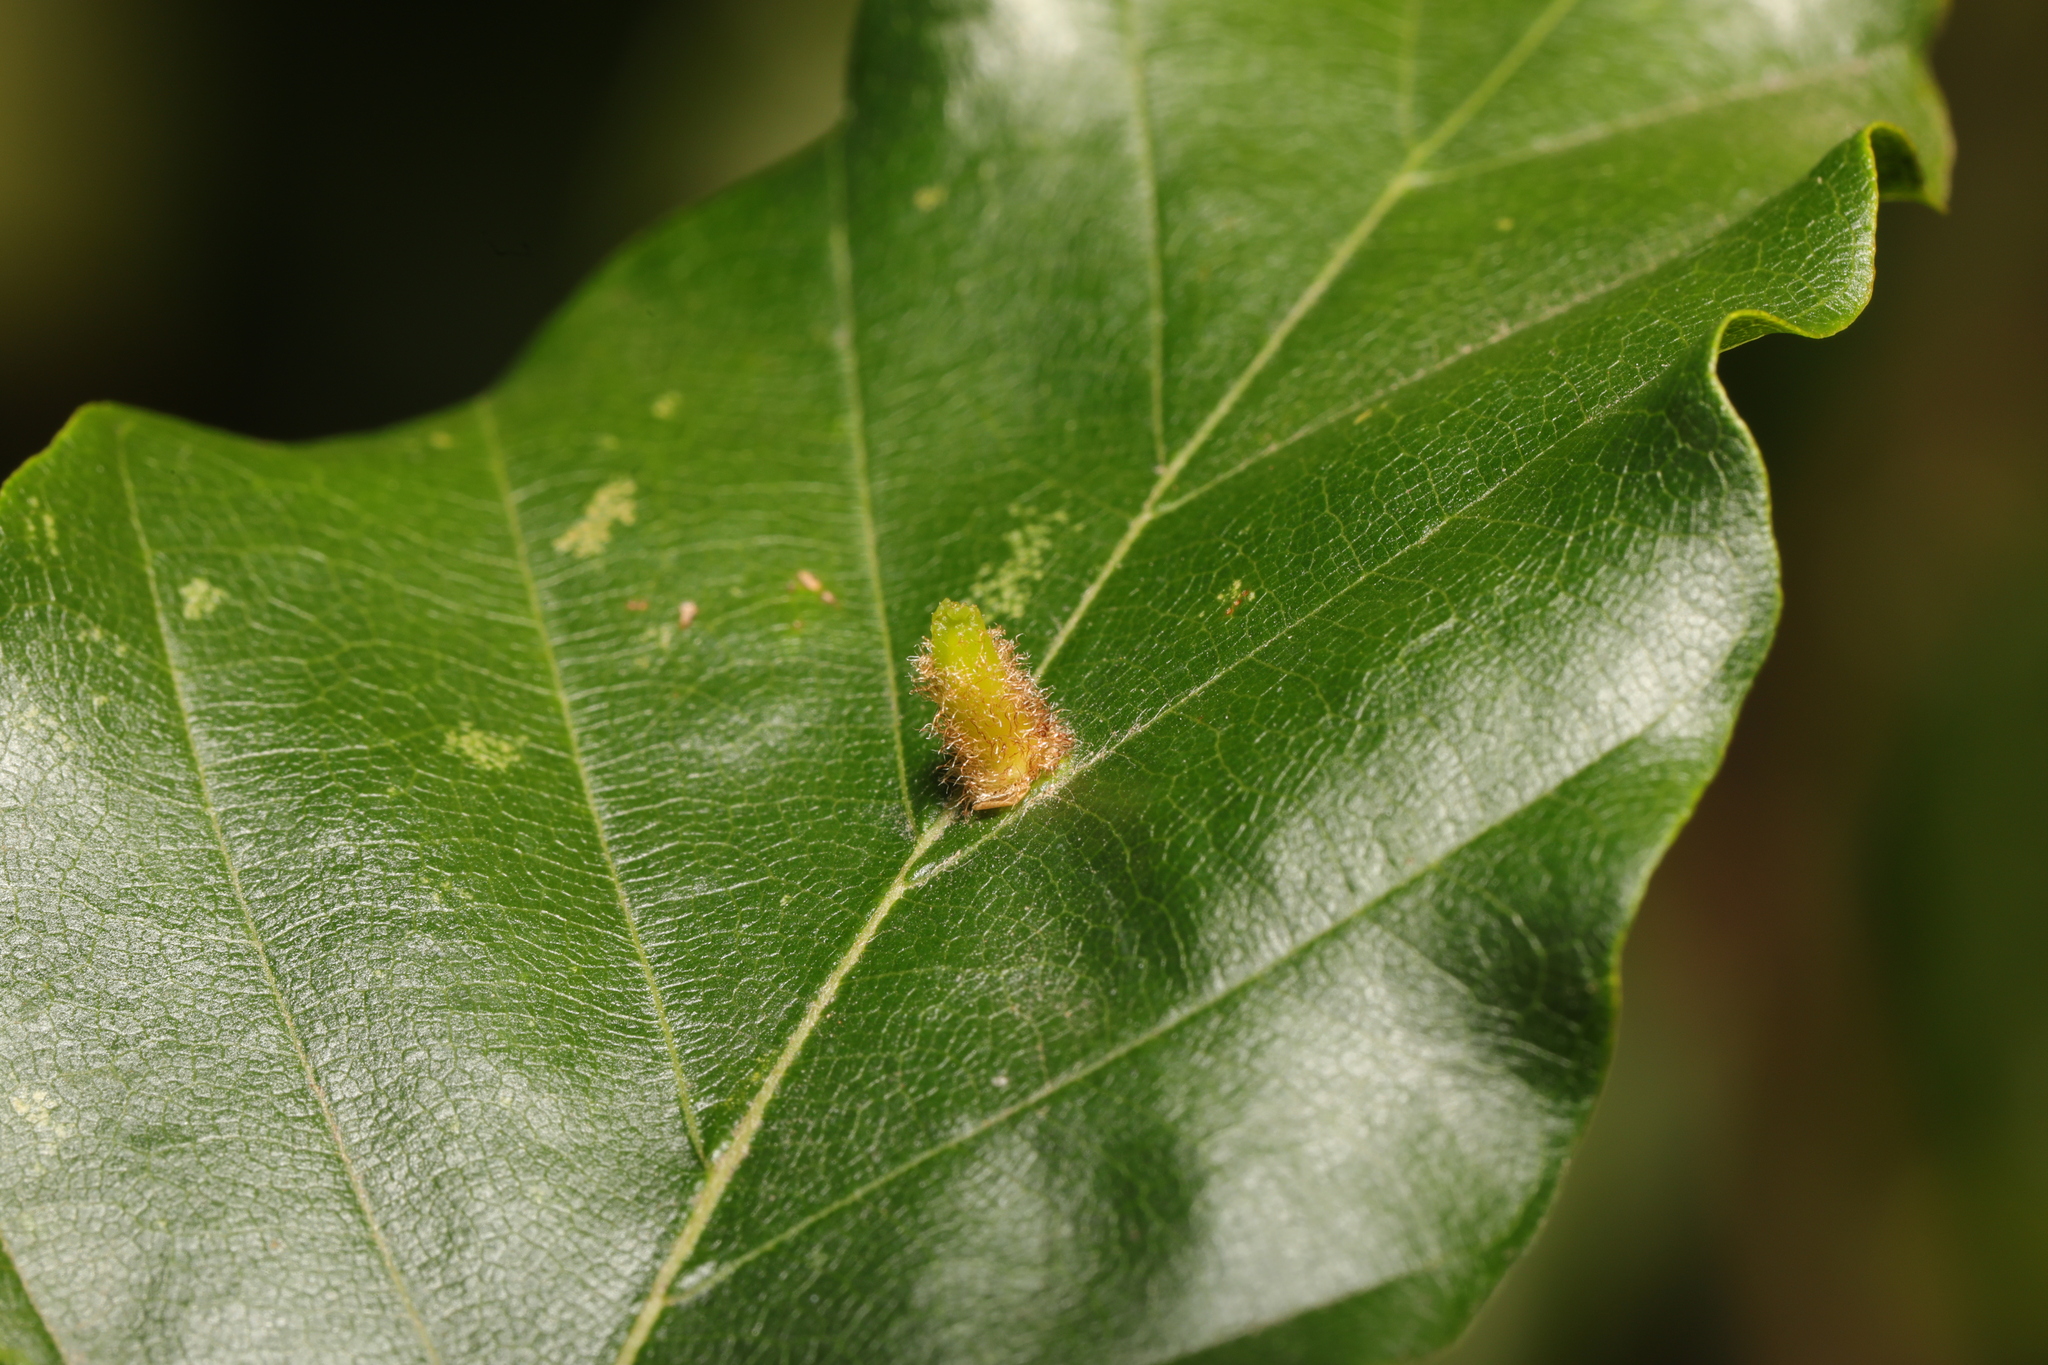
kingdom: Animalia
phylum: Arthropoda
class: Insecta
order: Diptera
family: Cecidomyiidae
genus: Hartigiola
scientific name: Hartigiola annulipes
